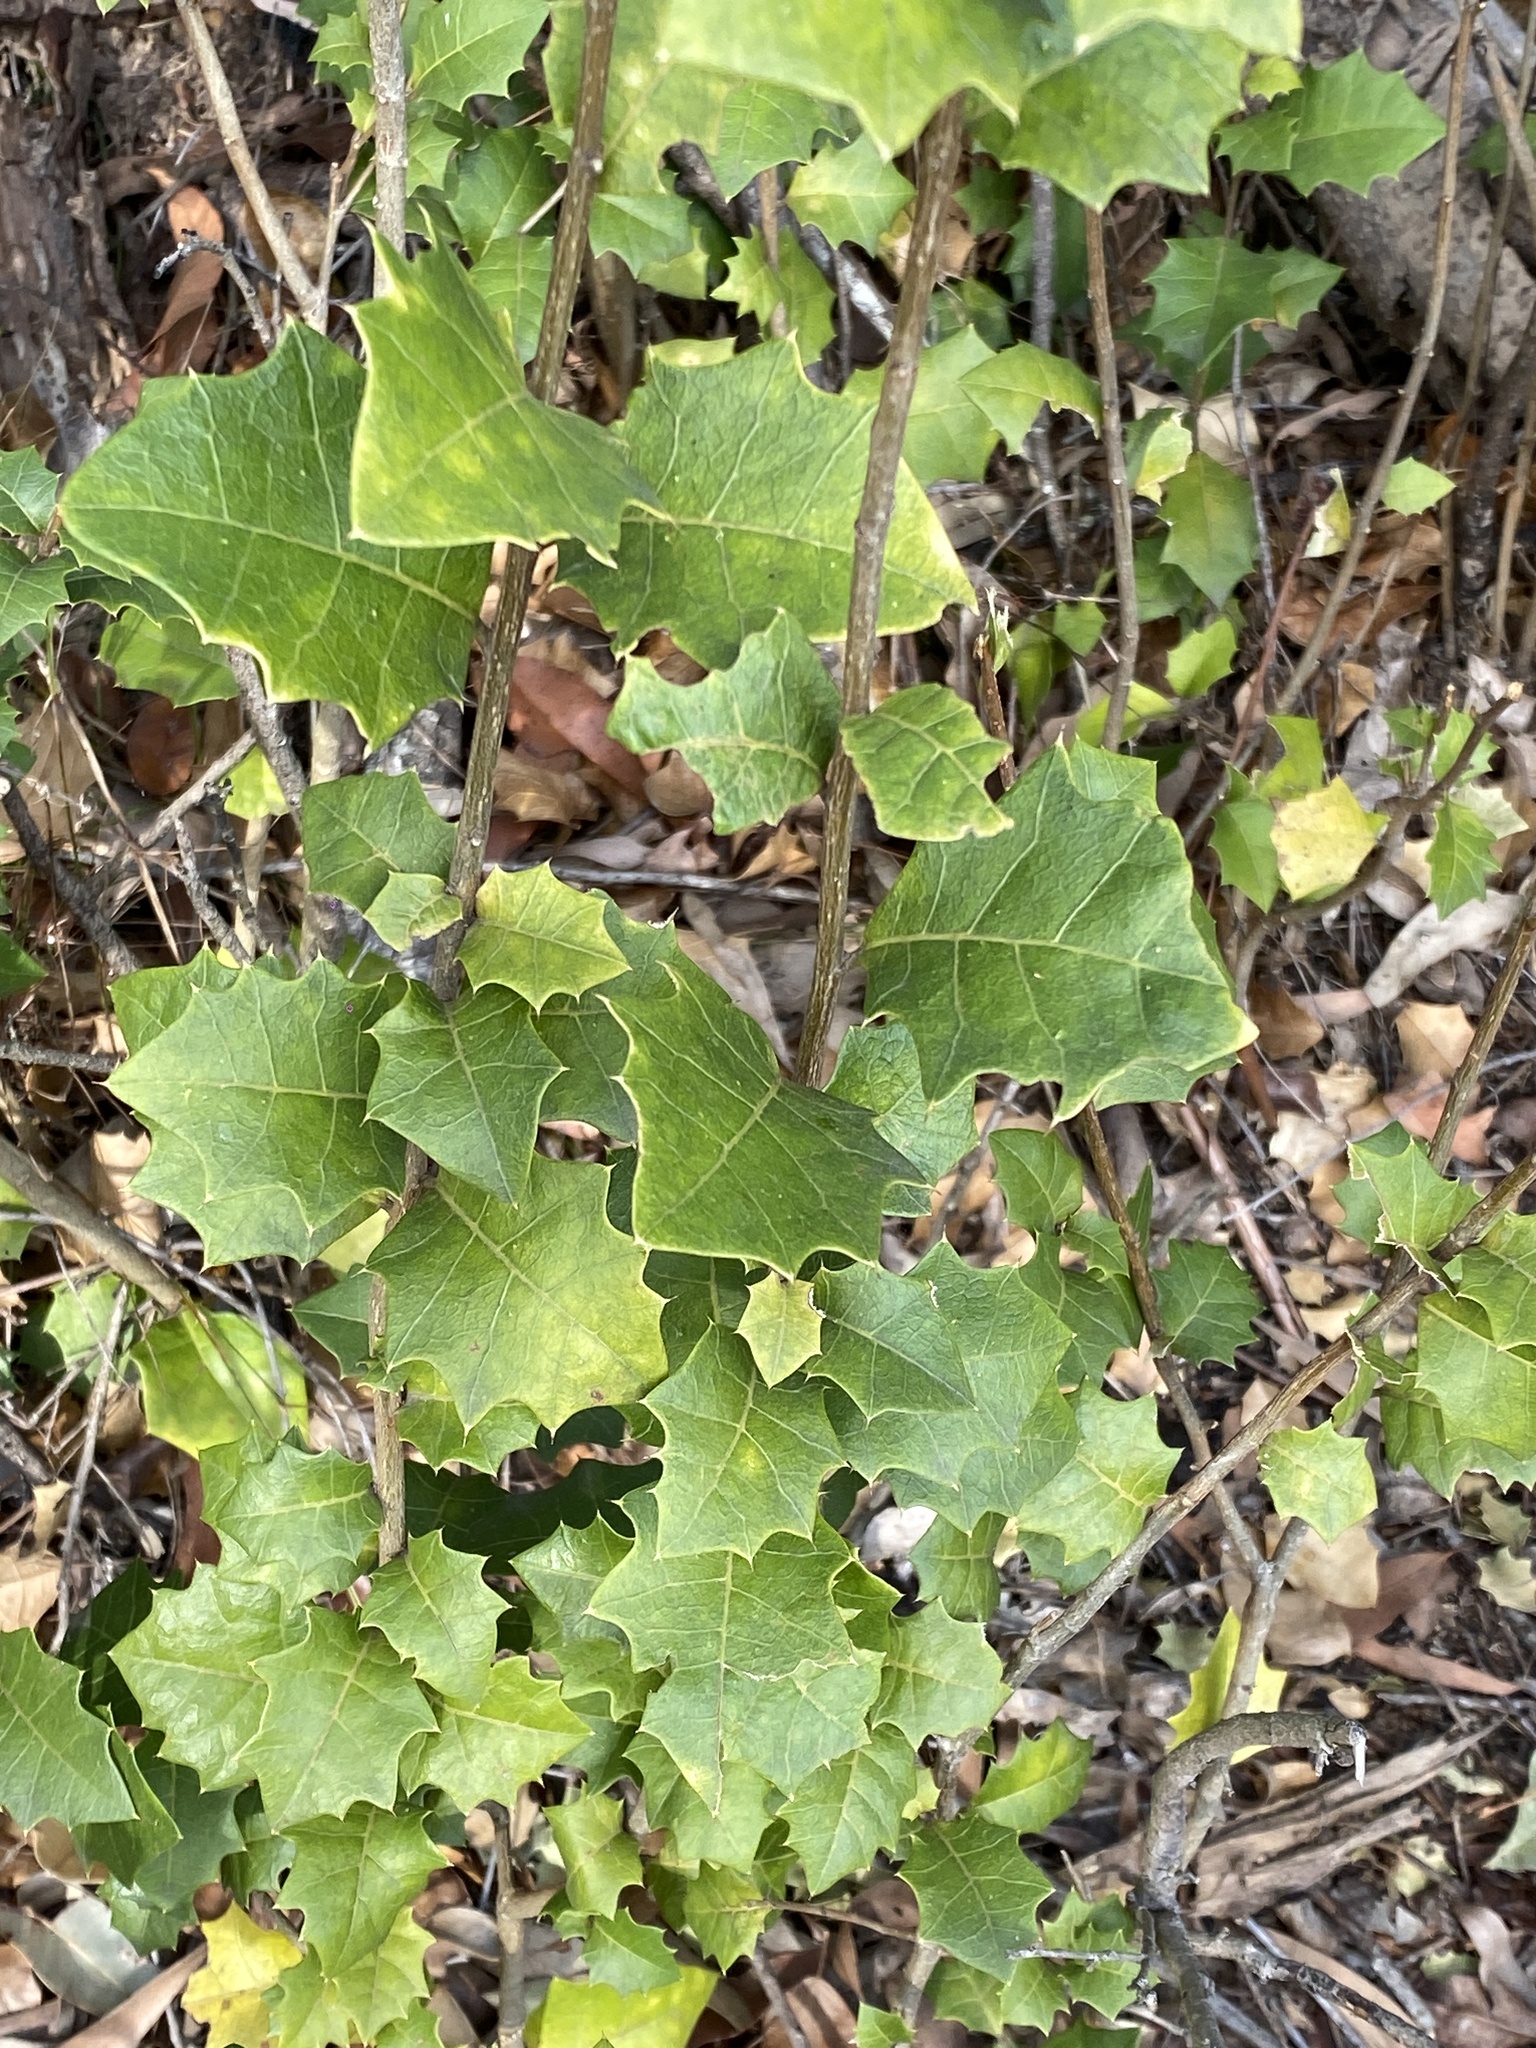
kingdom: Plantae
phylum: Tracheophyta
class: Magnoliopsida
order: Malpighiales
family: Euphorbiaceae
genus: Alchornea
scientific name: Alchornea ilicifolia
